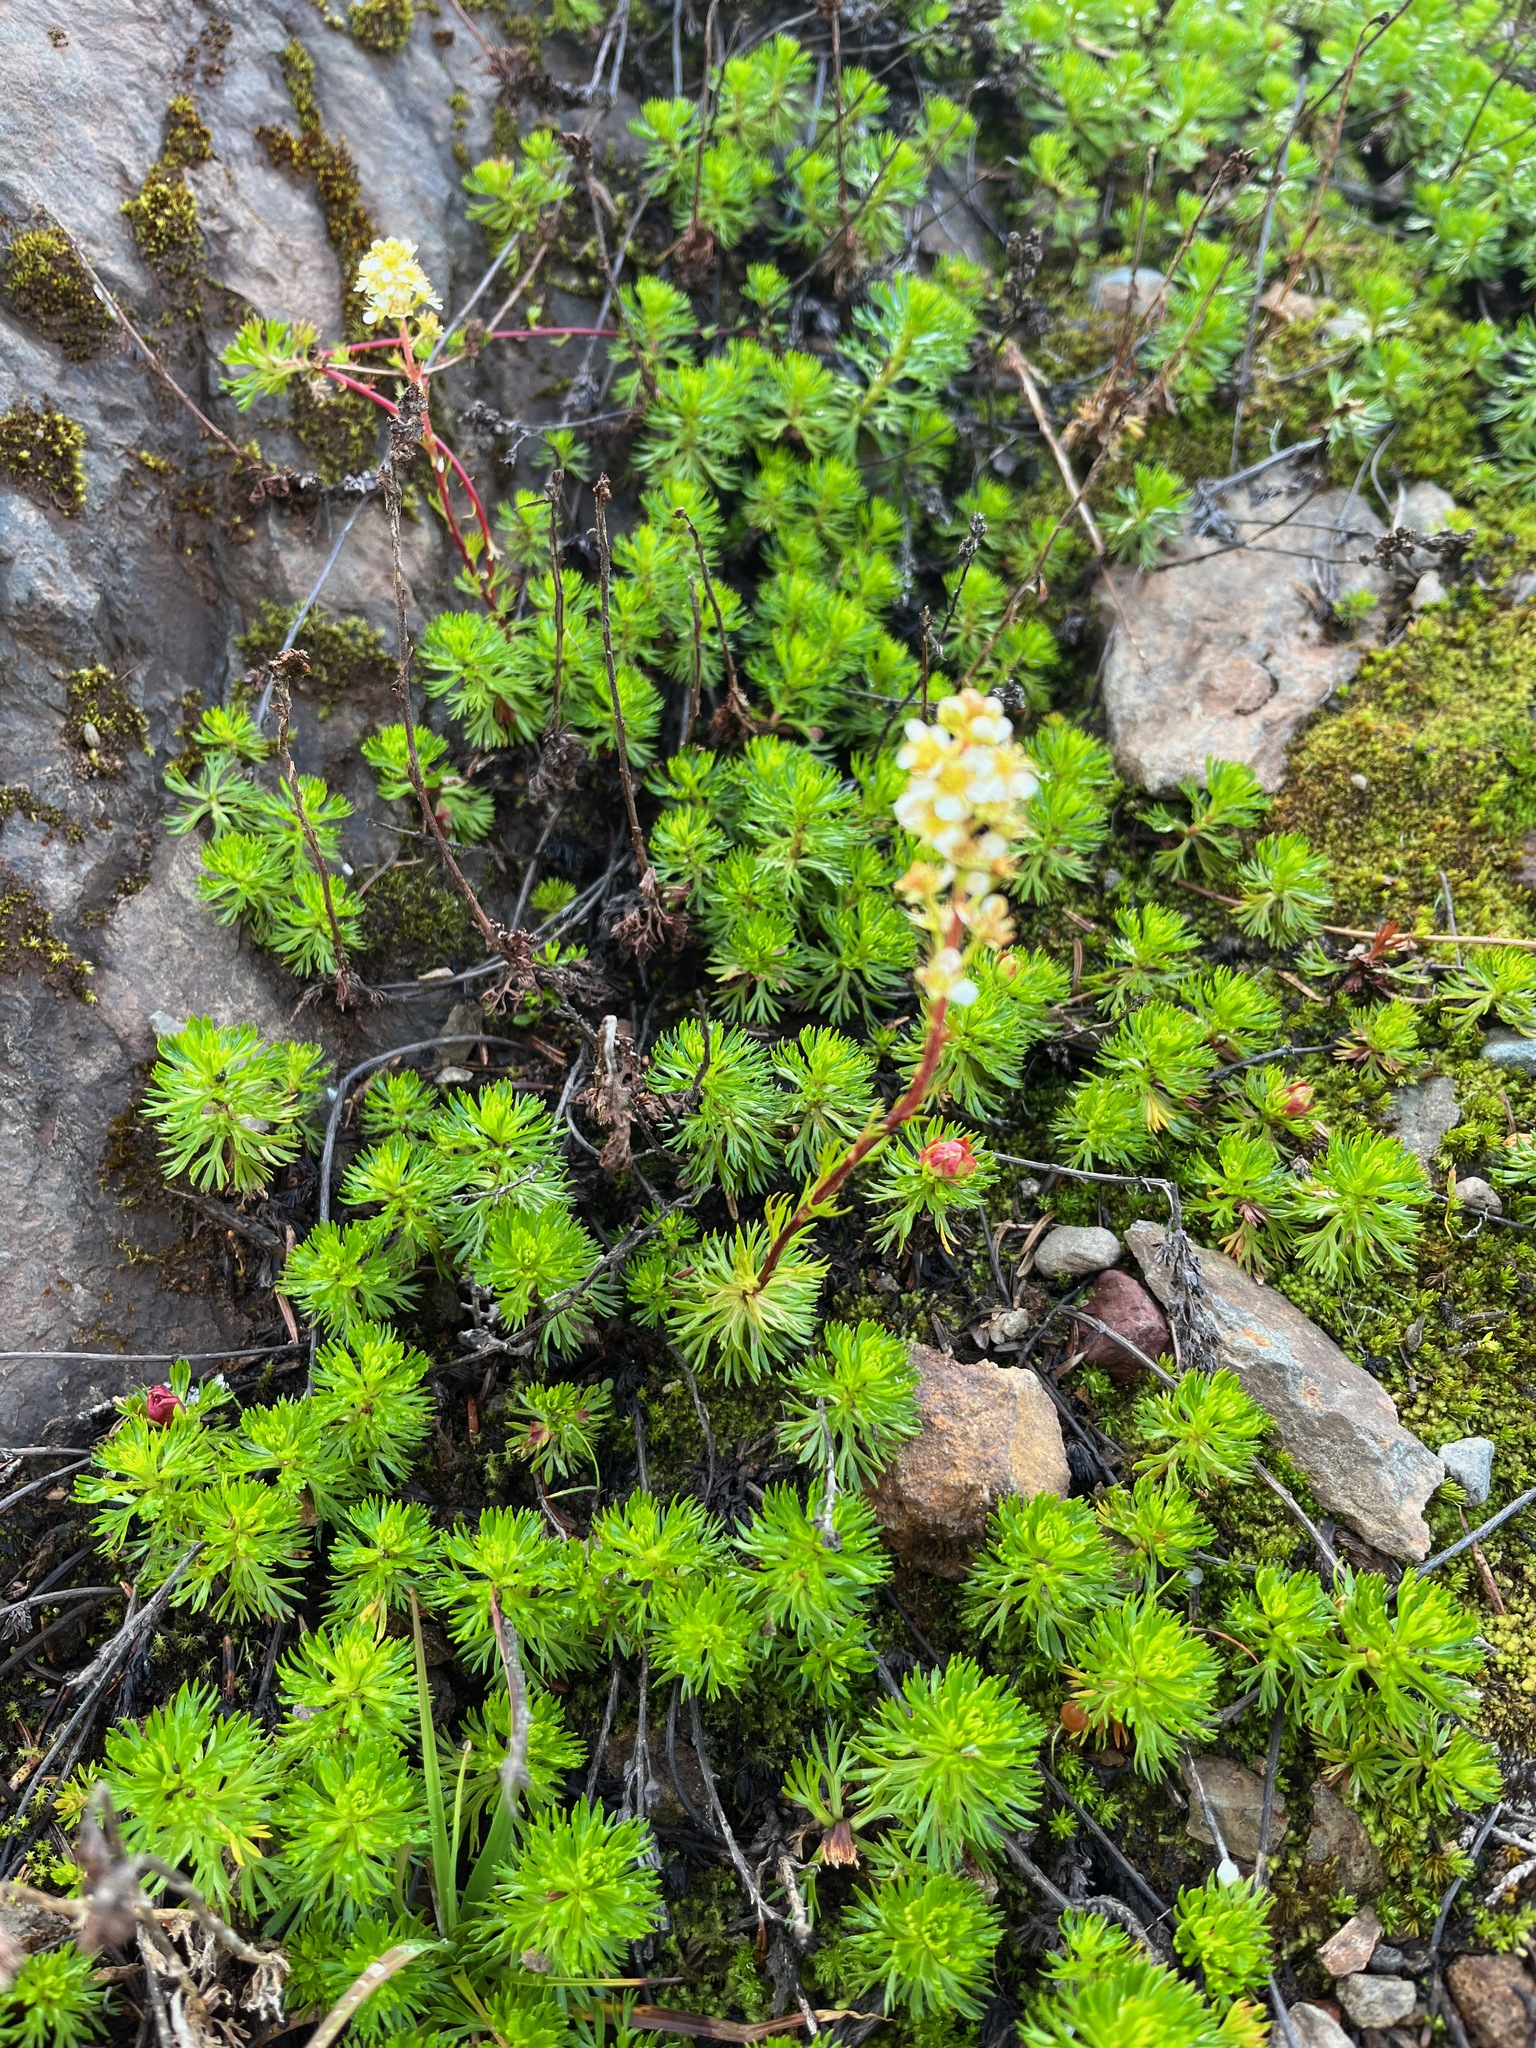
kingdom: Plantae
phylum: Tracheophyta
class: Magnoliopsida
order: Rosales
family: Rosaceae
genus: Luetkea
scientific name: Luetkea pectinata
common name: Partridgefoot
